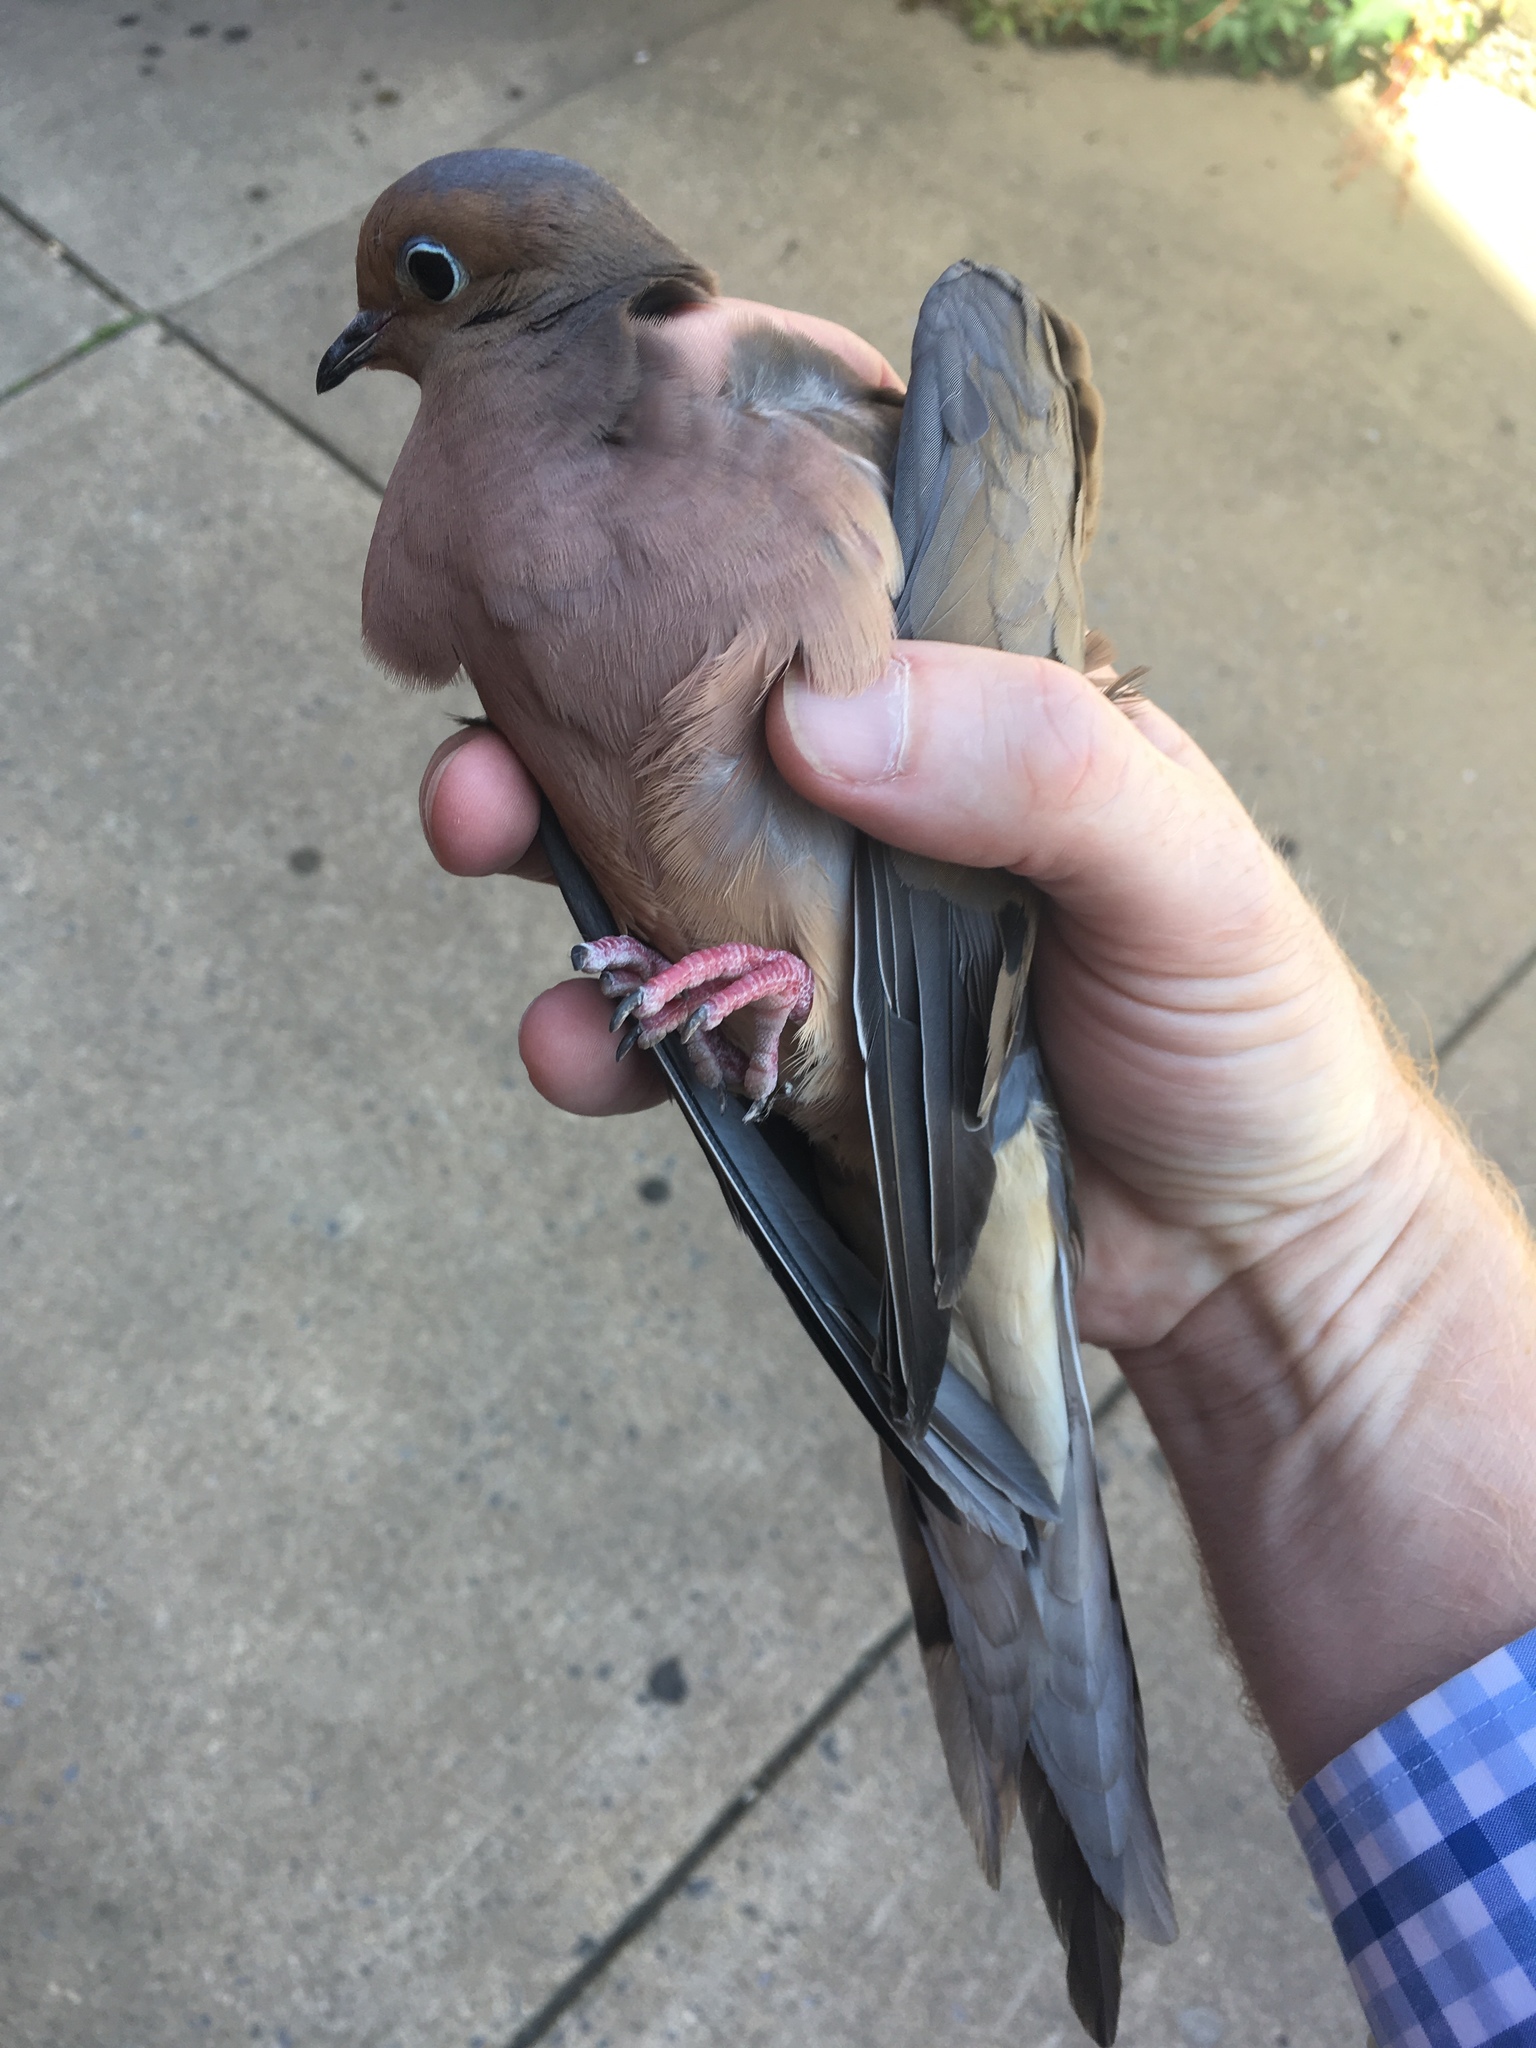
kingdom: Animalia
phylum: Chordata
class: Aves
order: Columbiformes
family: Columbidae
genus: Zenaida
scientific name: Zenaida macroura
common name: Mourning dove
